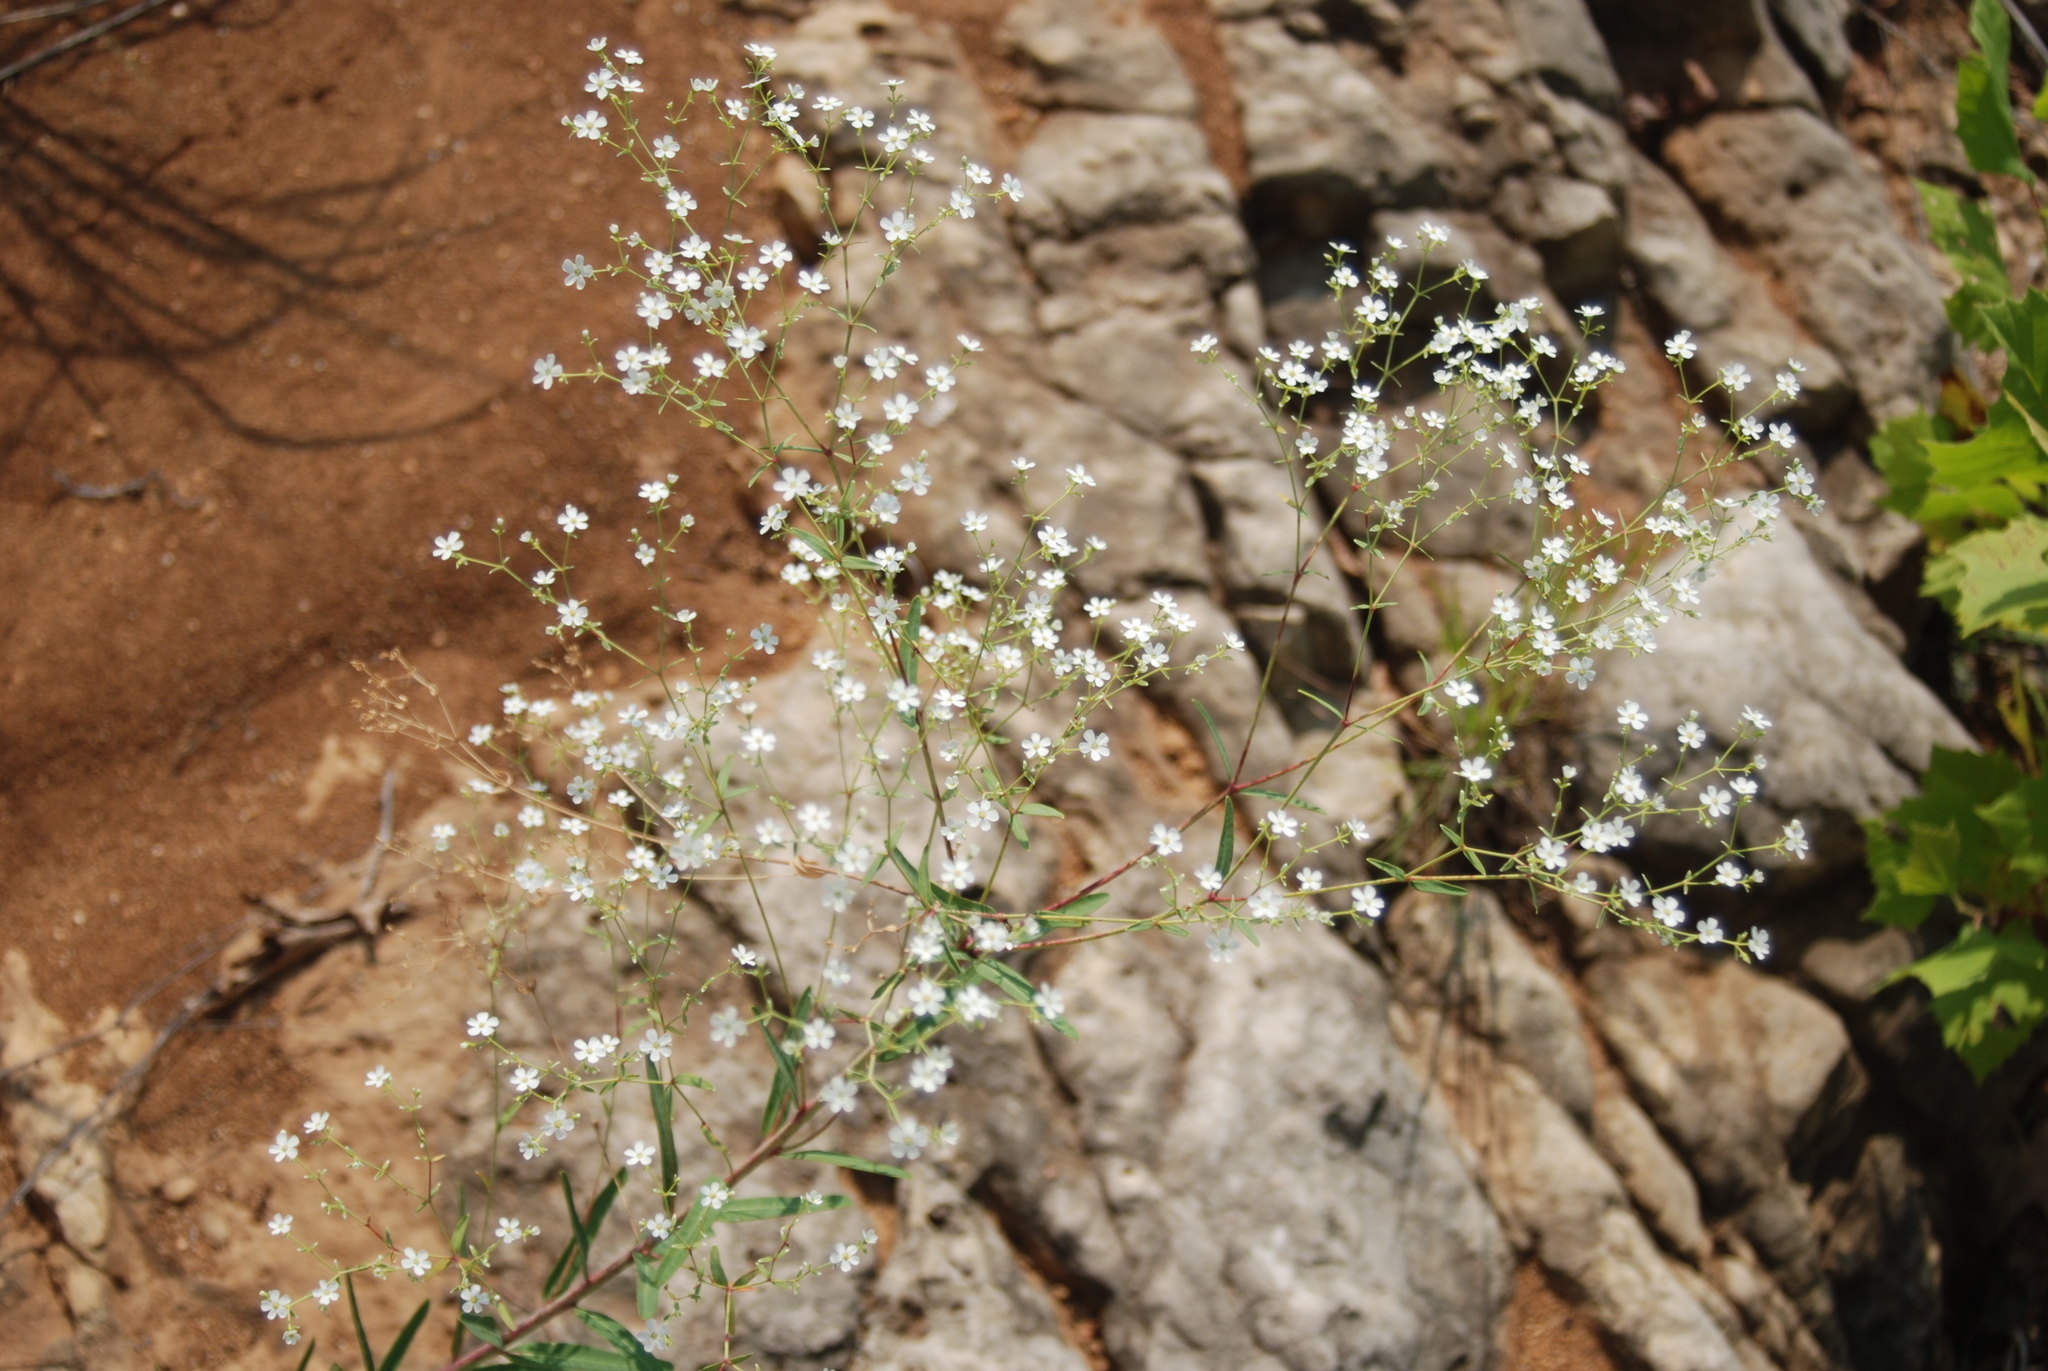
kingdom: Plantae
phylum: Tracheophyta
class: Magnoliopsida
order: Malpighiales
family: Euphorbiaceae
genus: Euphorbia
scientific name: Euphorbia corollata
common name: Flowering spurge
